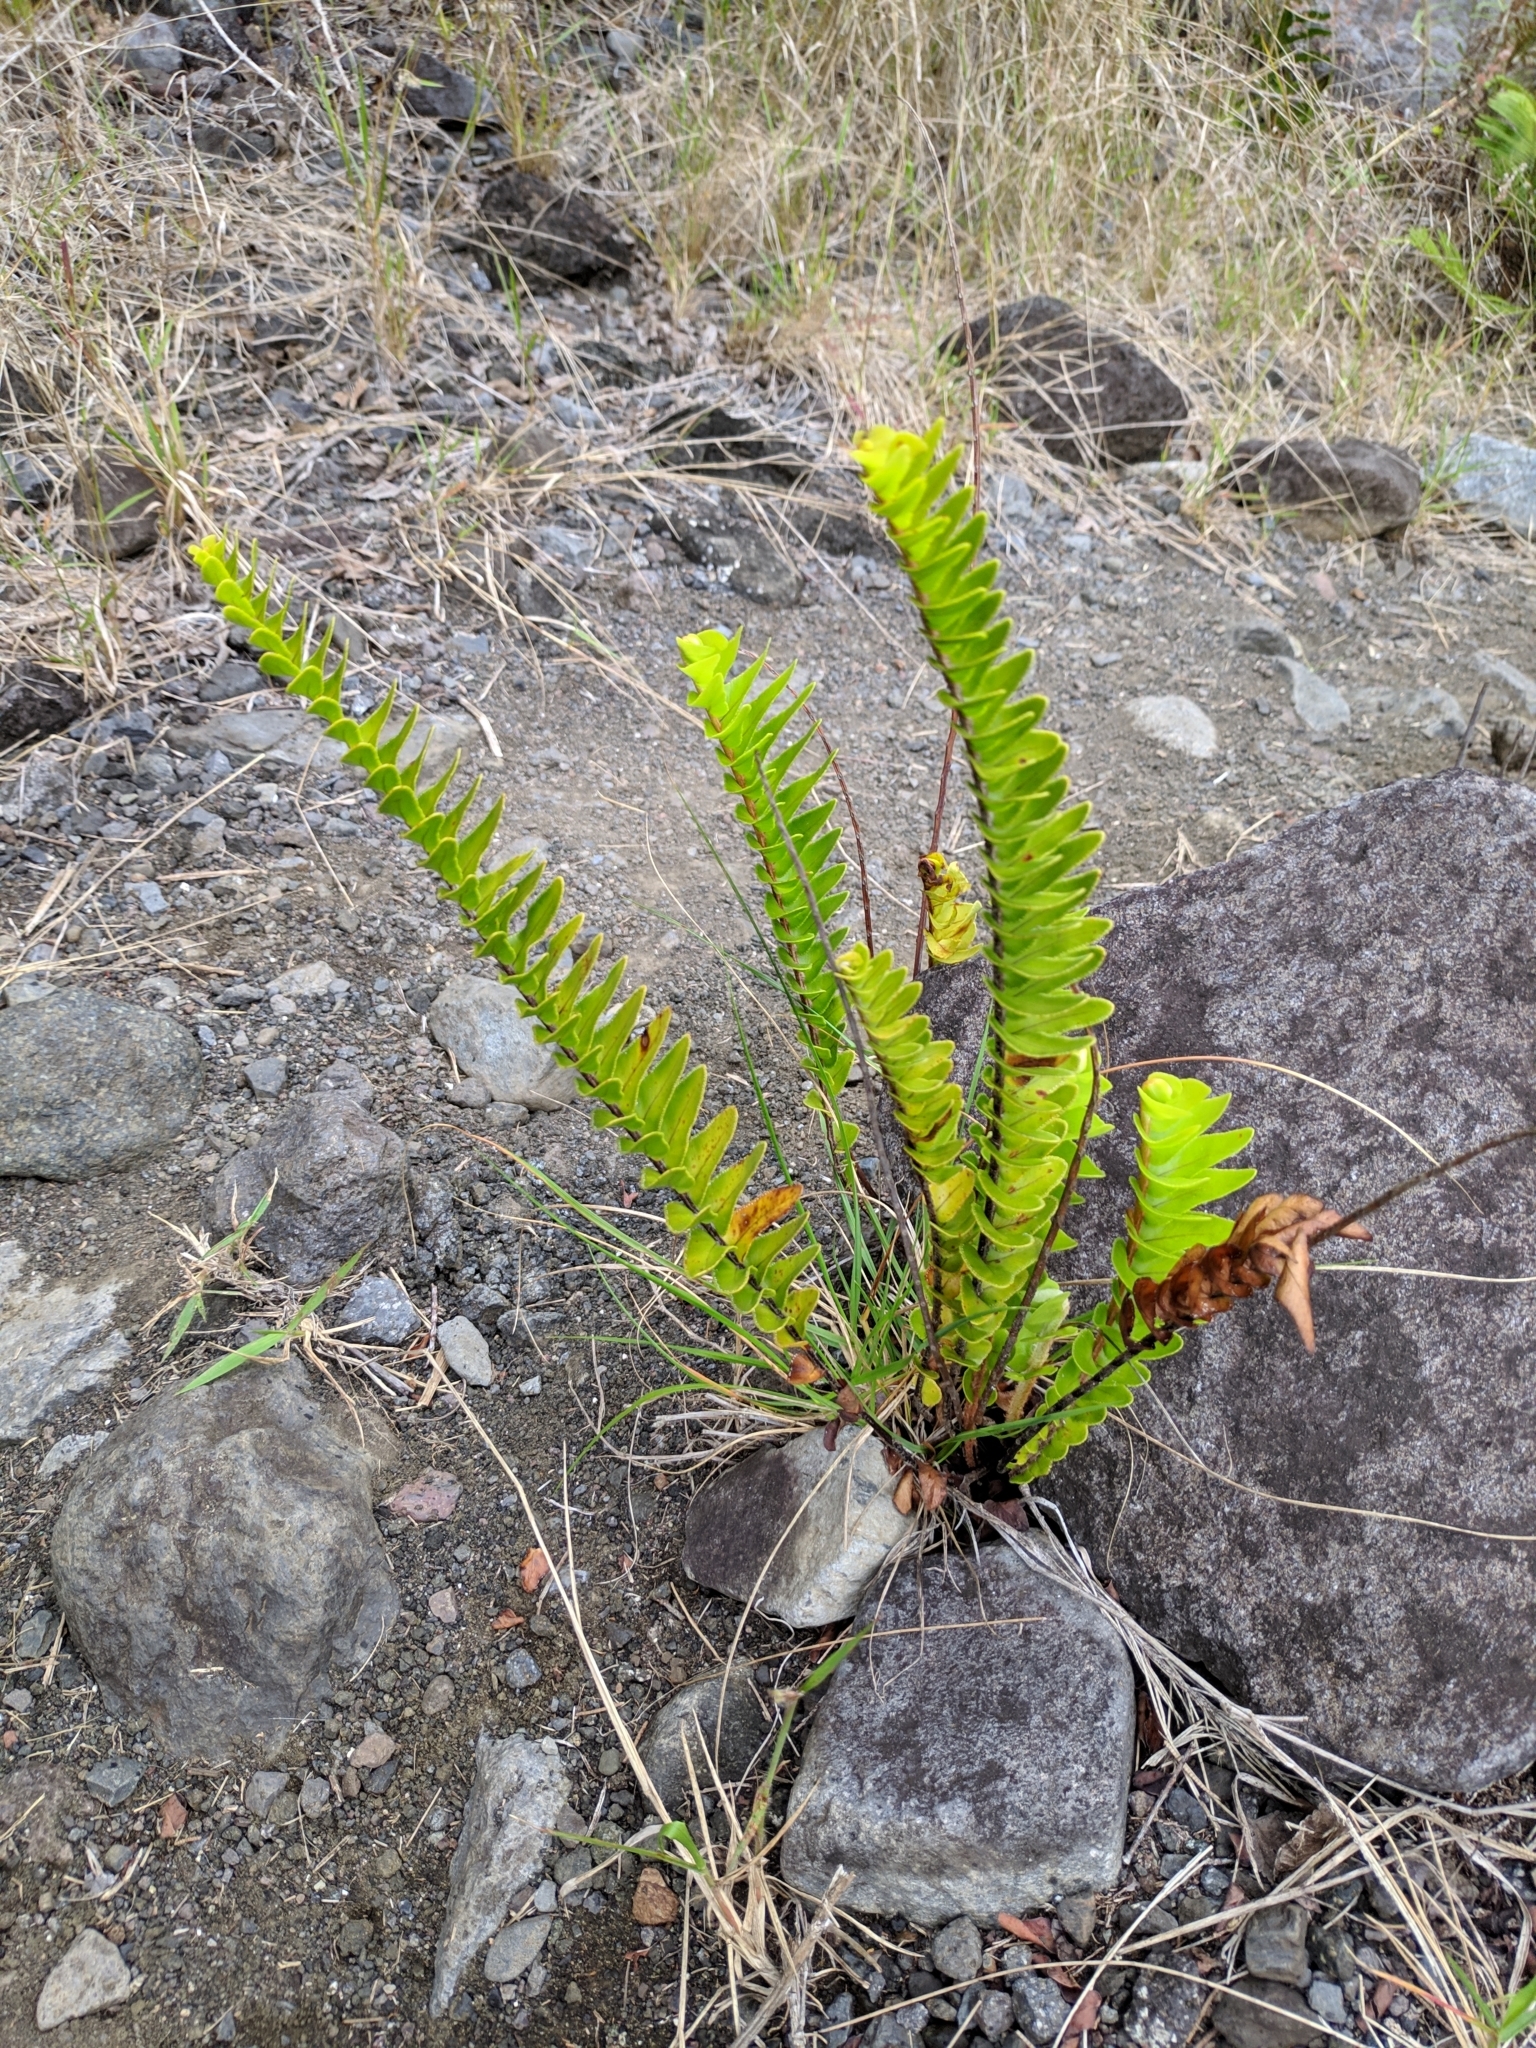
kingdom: Plantae
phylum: Tracheophyta
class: Polypodiopsida
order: Polypodiales
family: Nephrolepidaceae
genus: Nephrolepis
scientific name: Nephrolepis abrupta
